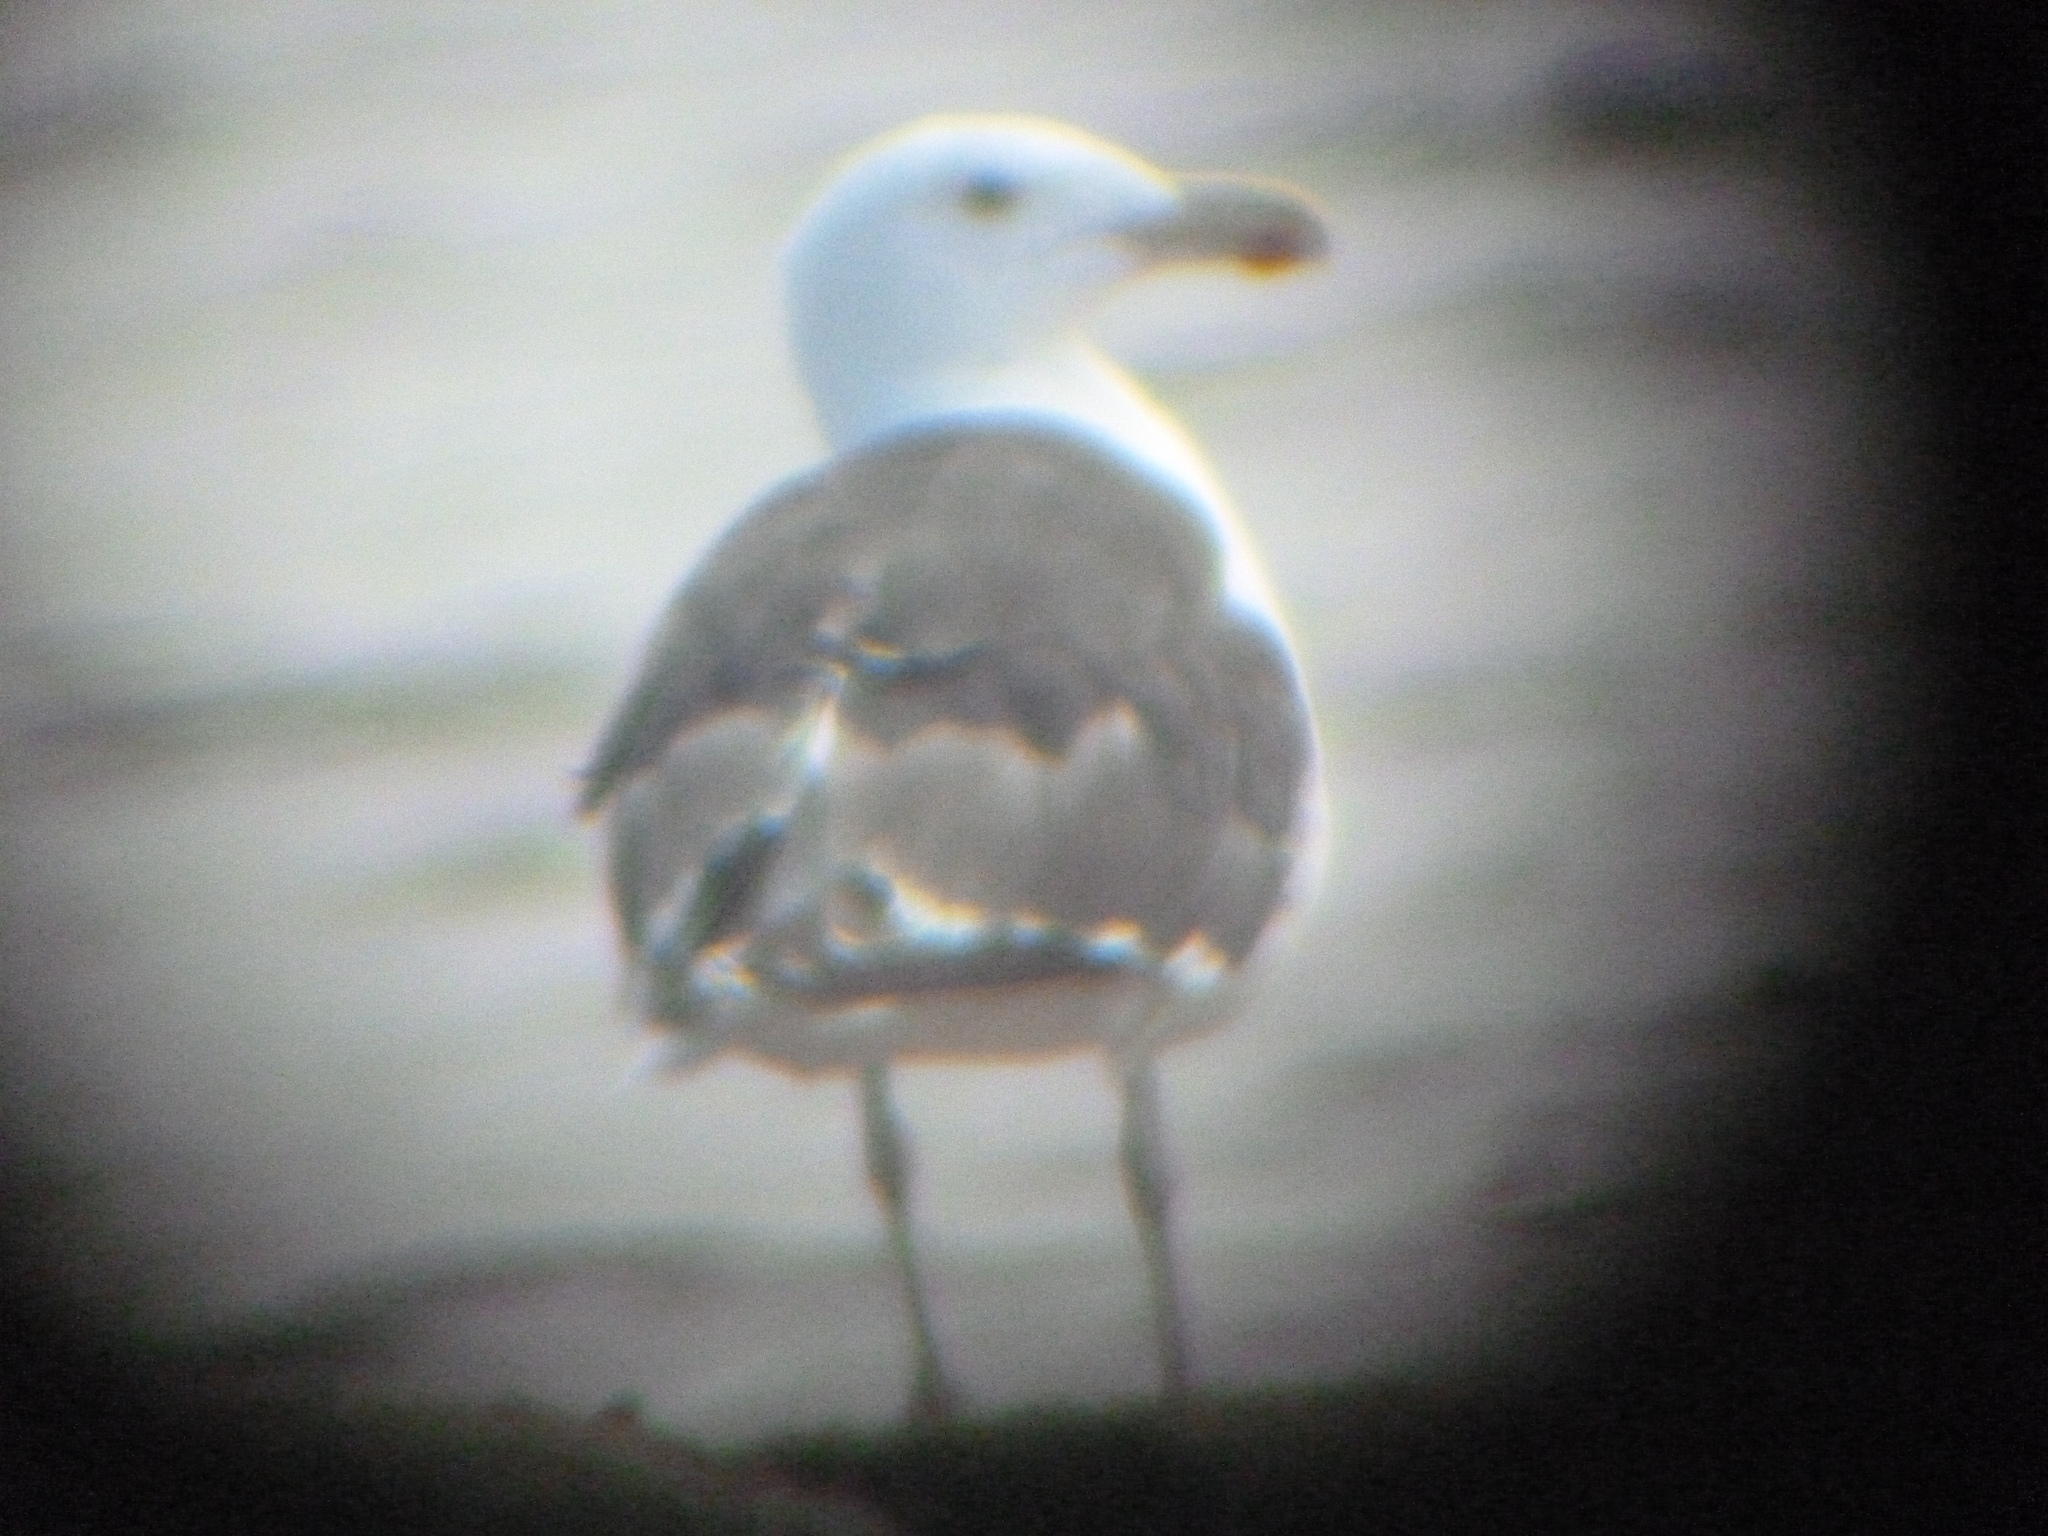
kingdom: Animalia
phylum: Chordata
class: Aves
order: Charadriiformes
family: Laridae
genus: Larus
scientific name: Larus marinus
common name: Great black-backed gull
